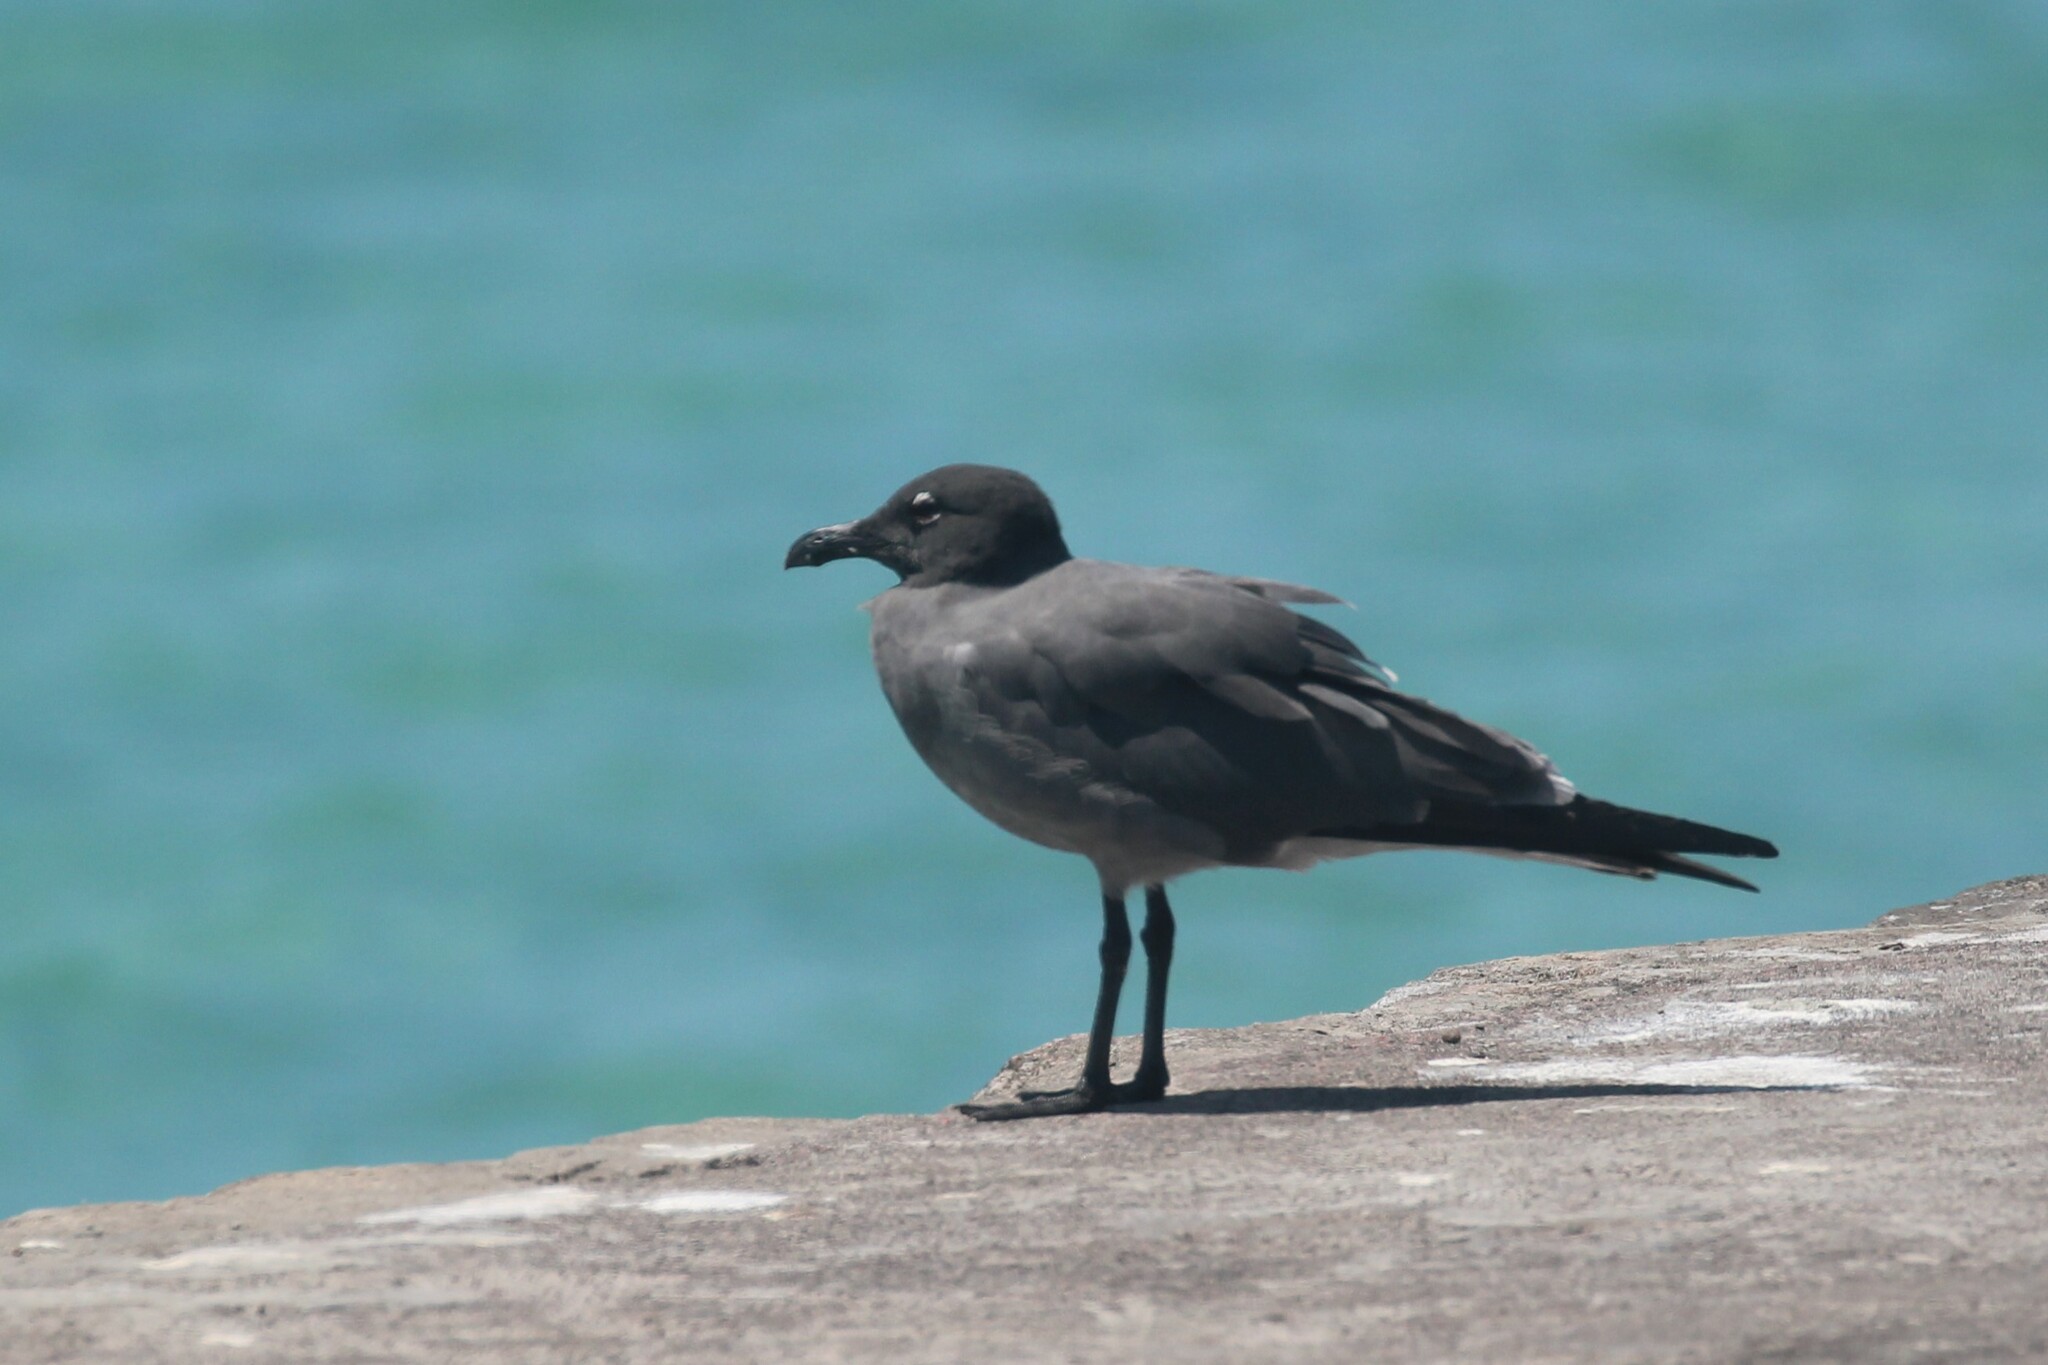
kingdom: Animalia
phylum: Chordata
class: Aves
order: Charadriiformes
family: Laridae
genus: Leucophaeus
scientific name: Leucophaeus fuliginosus
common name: Lava gull
